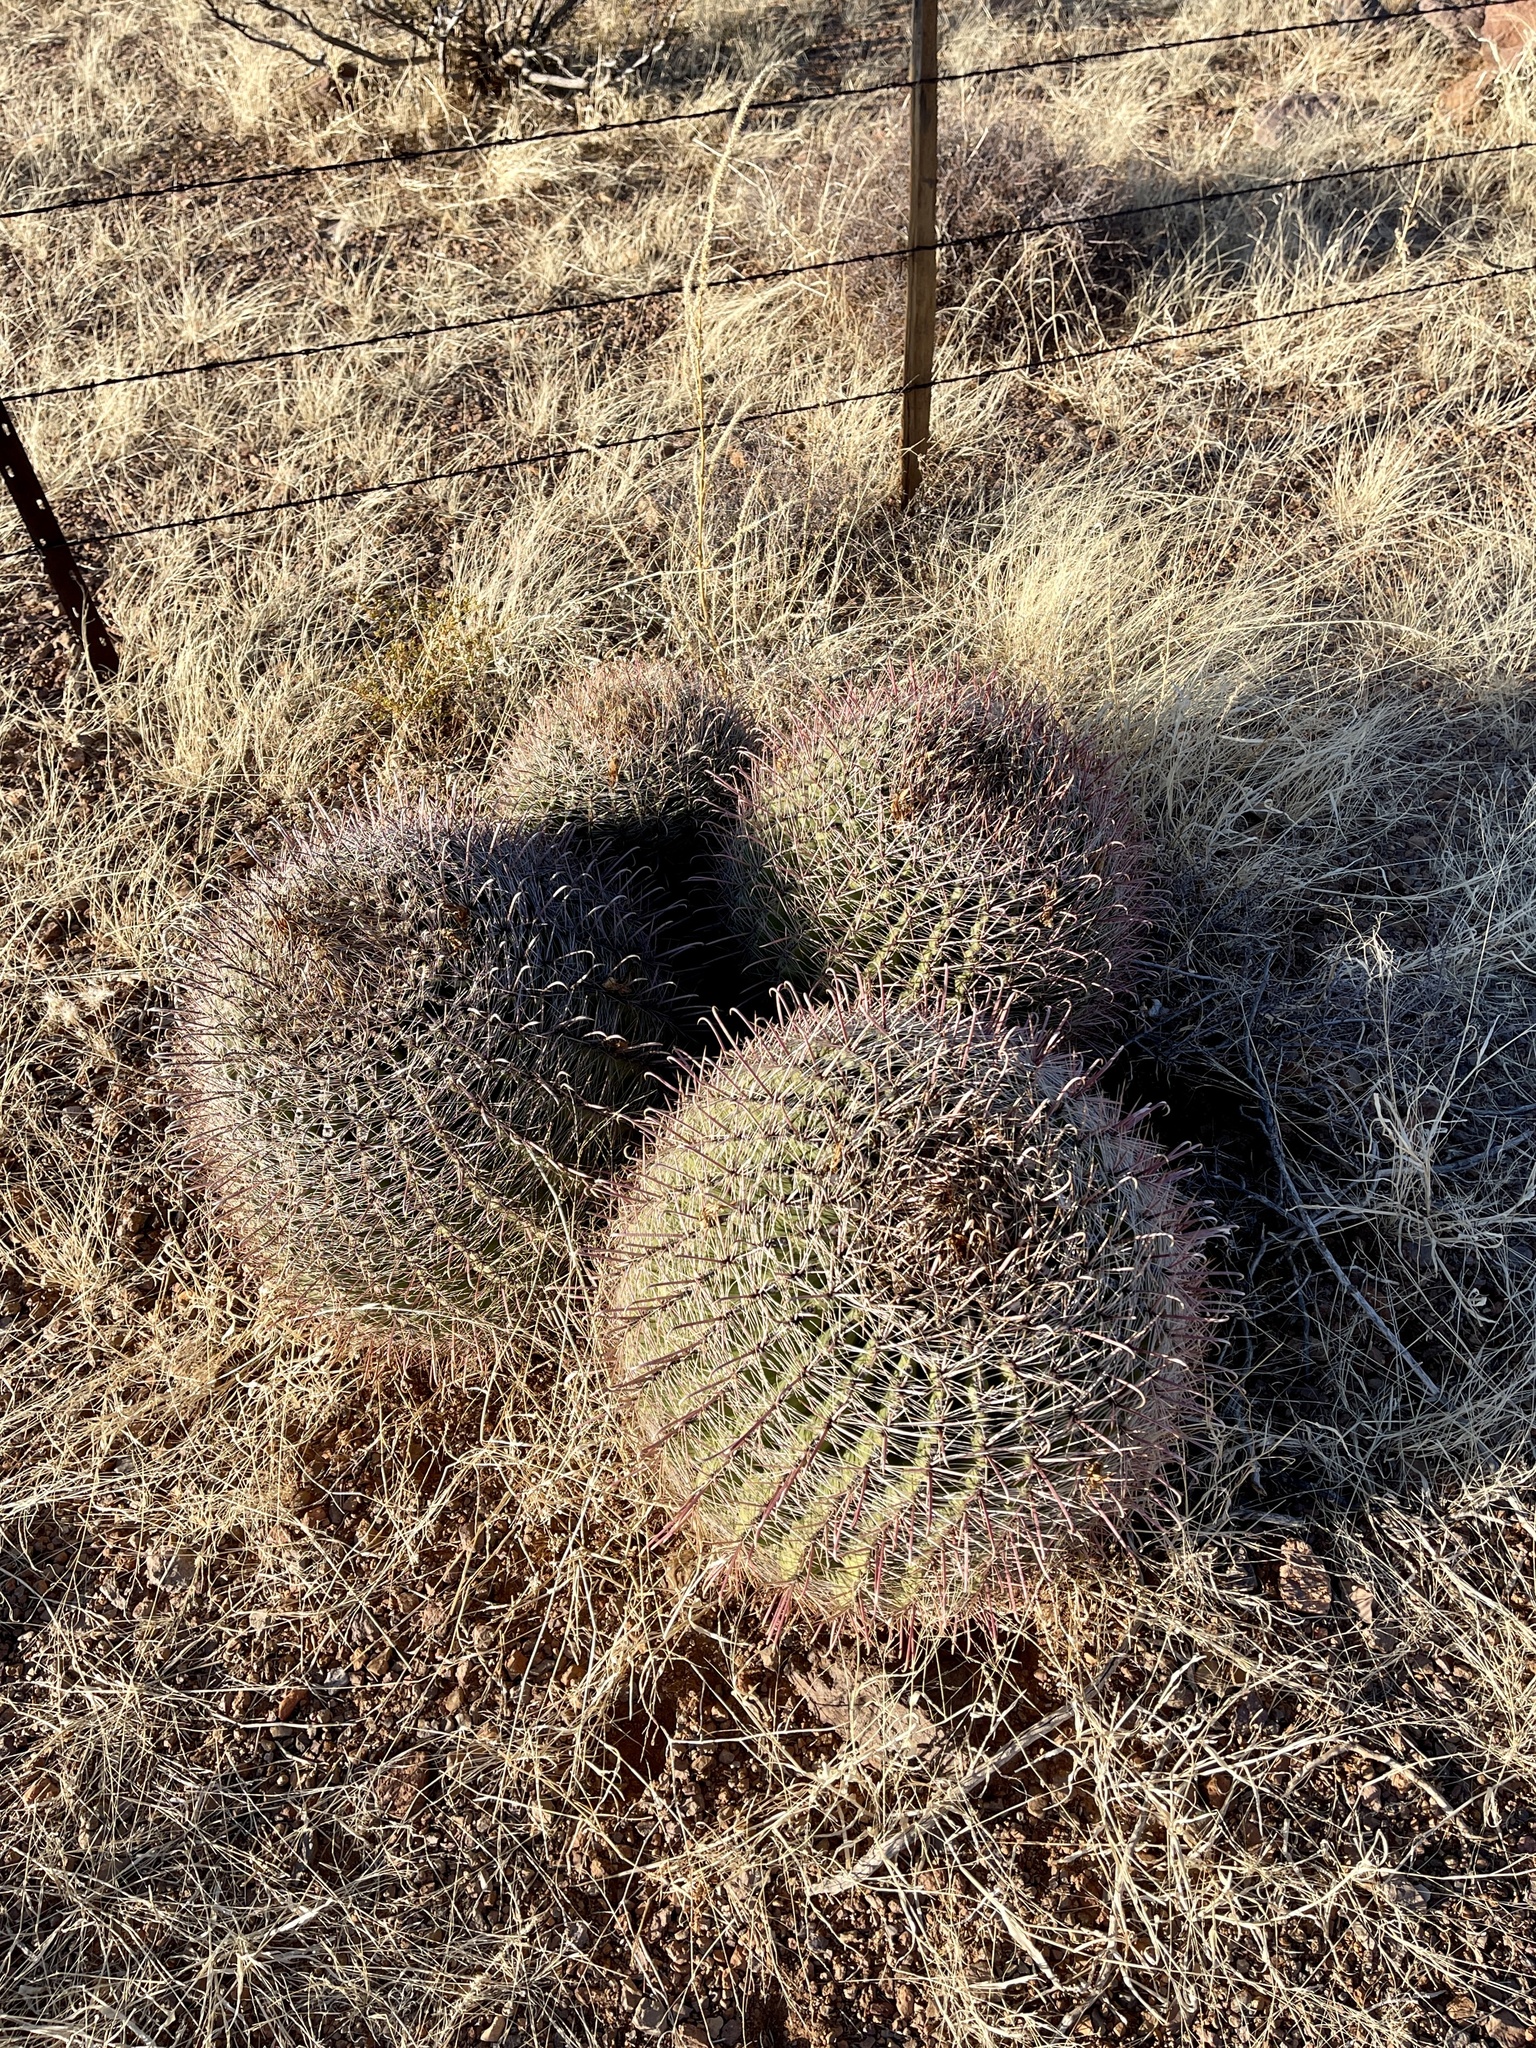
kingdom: Plantae
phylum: Tracheophyta
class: Magnoliopsida
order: Caryophyllales
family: Cactaceae
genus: Ferocactus
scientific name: Ferocactus wislizeni
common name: Candy barrel cactus
